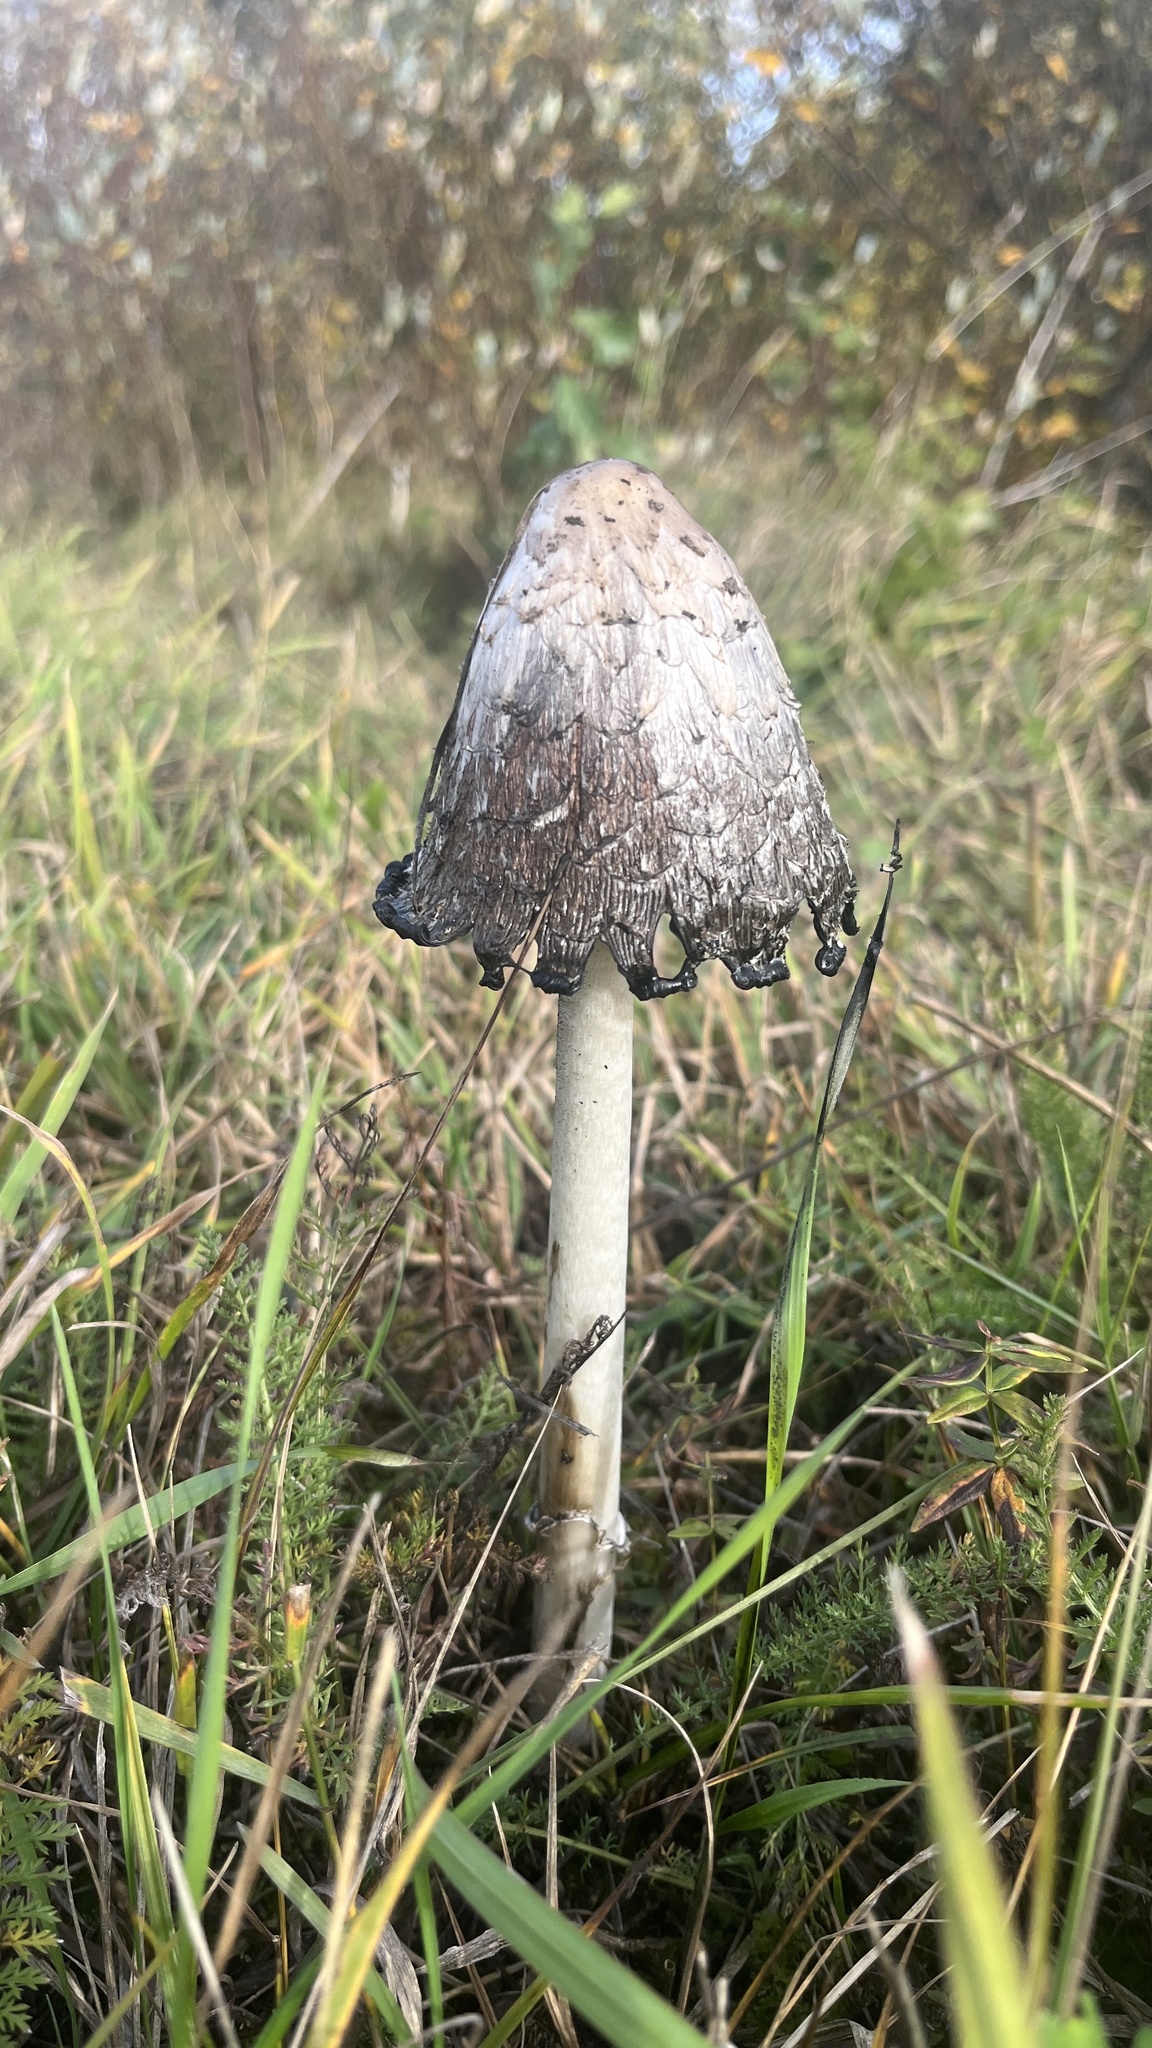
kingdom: Fungi
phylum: Basidiomycota
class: Agaricomycetes
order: Agaricales
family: Agaricaceae
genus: Coprinus
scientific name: Coprinus comatus
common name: Lawyer's wig
